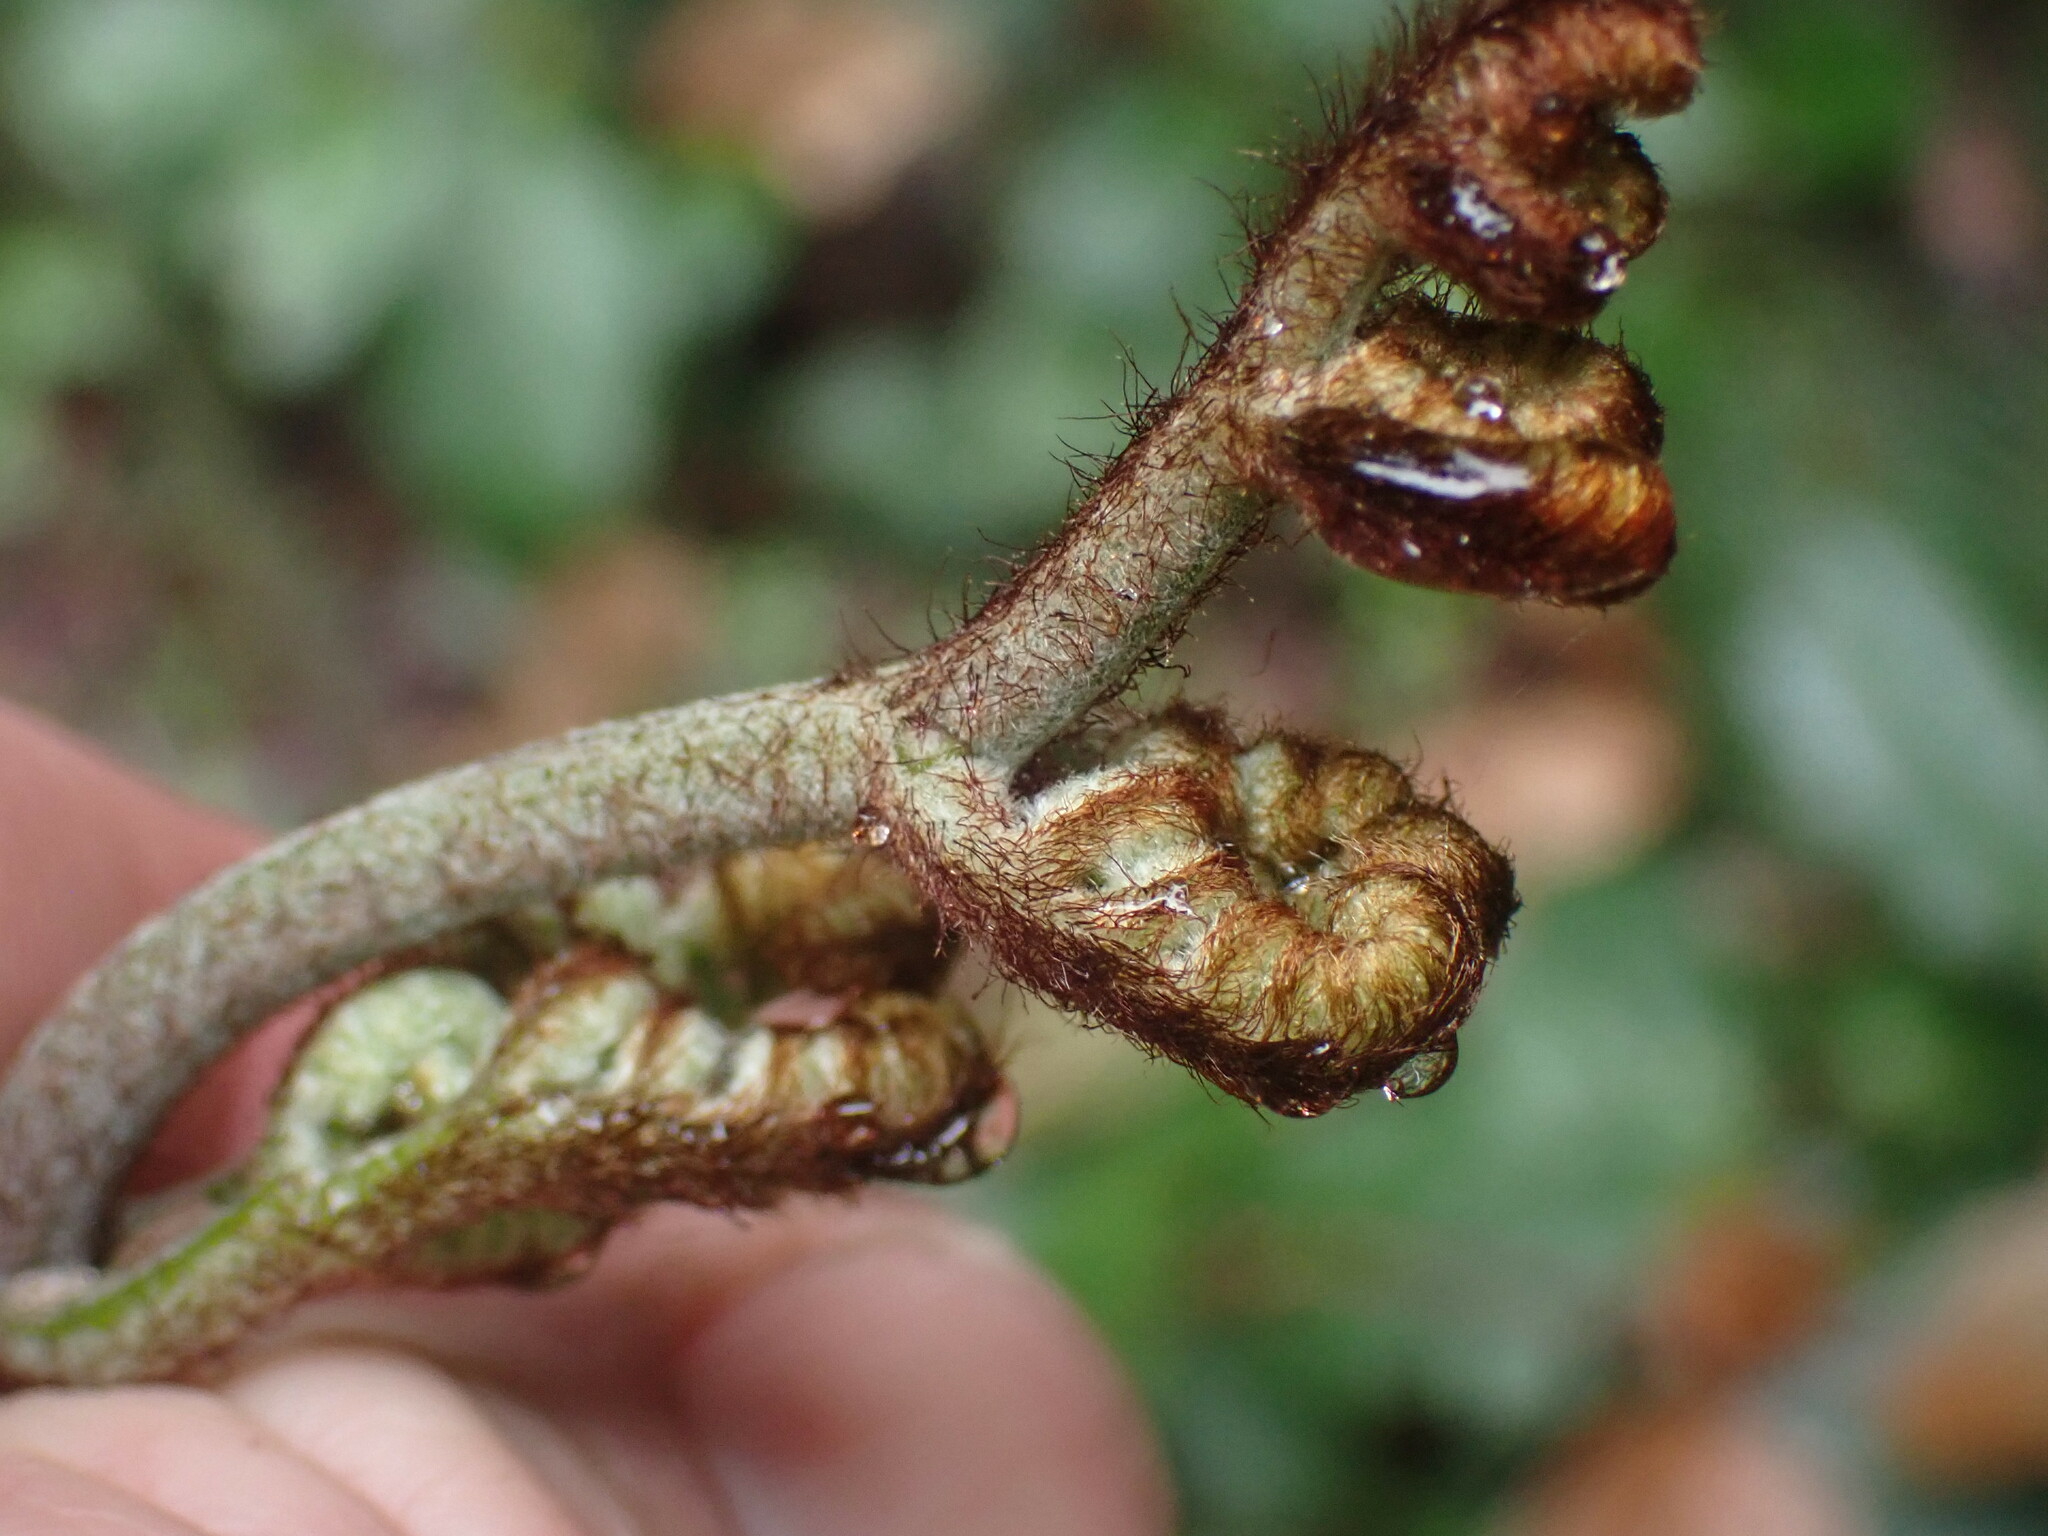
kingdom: Plantae
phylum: Tracheophyta
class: Polypodiopsida
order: Polypodiales
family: Dennstaedtiaceae
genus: Pteridium
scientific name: Pteridium aquilinum
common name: Bracken
